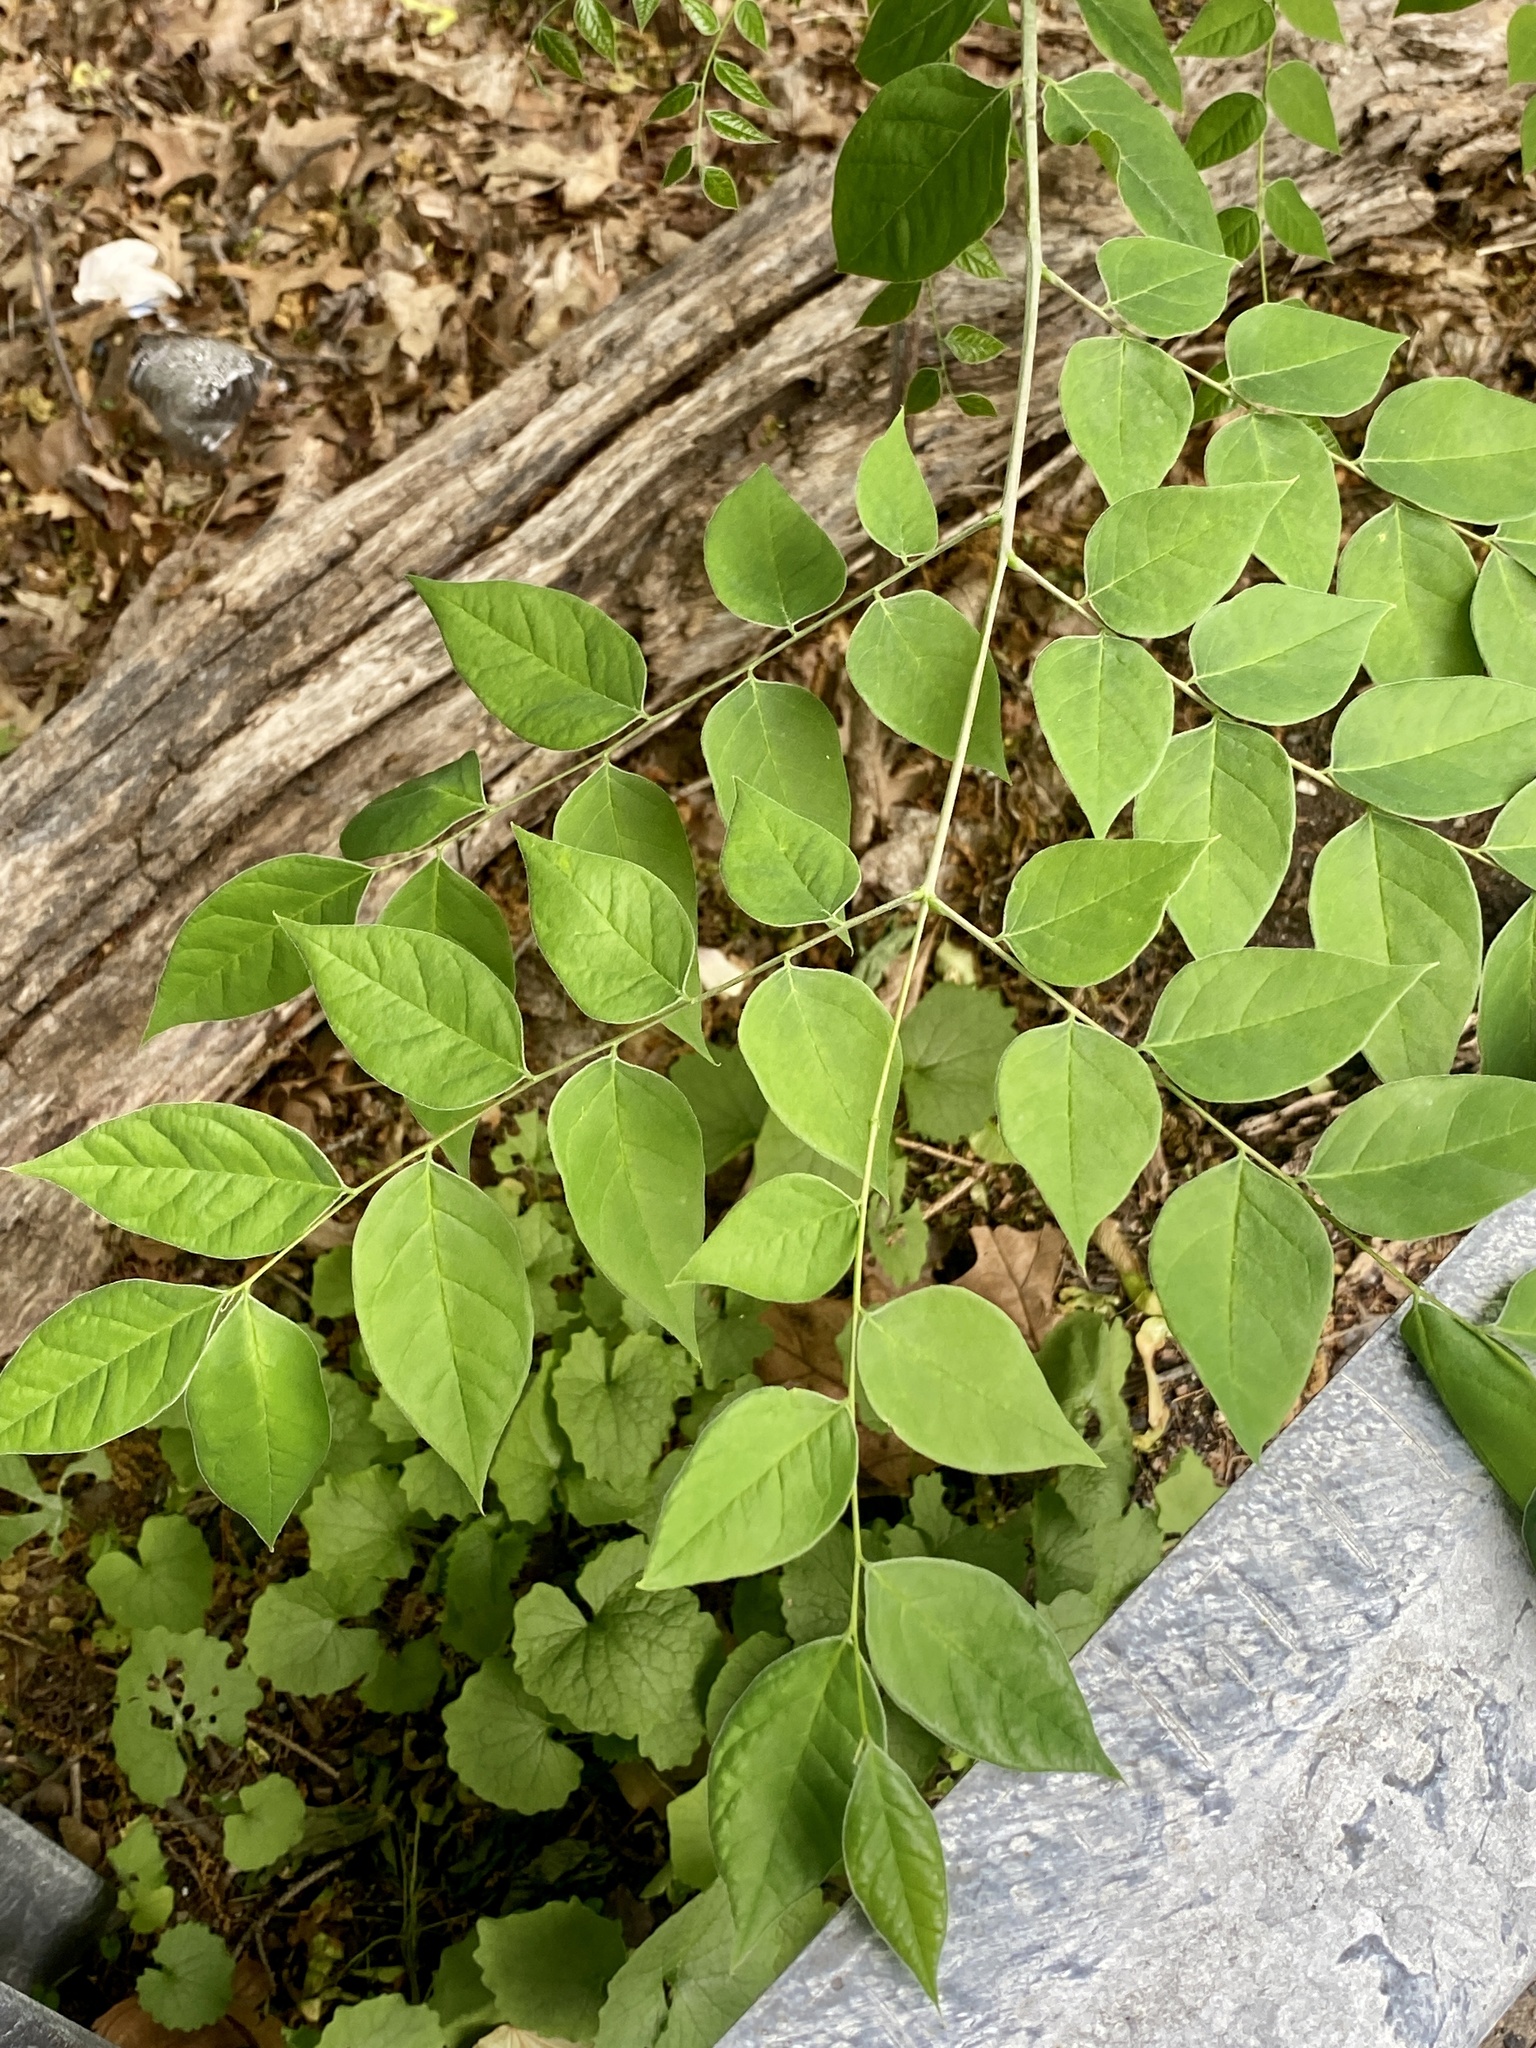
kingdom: Plantae
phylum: Tracheophyta
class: Magnoliopsida
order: Fabales
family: Fabaceae
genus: Gymnocladus
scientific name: Gymnocladus dioicus
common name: Kentucky coffee-tree
